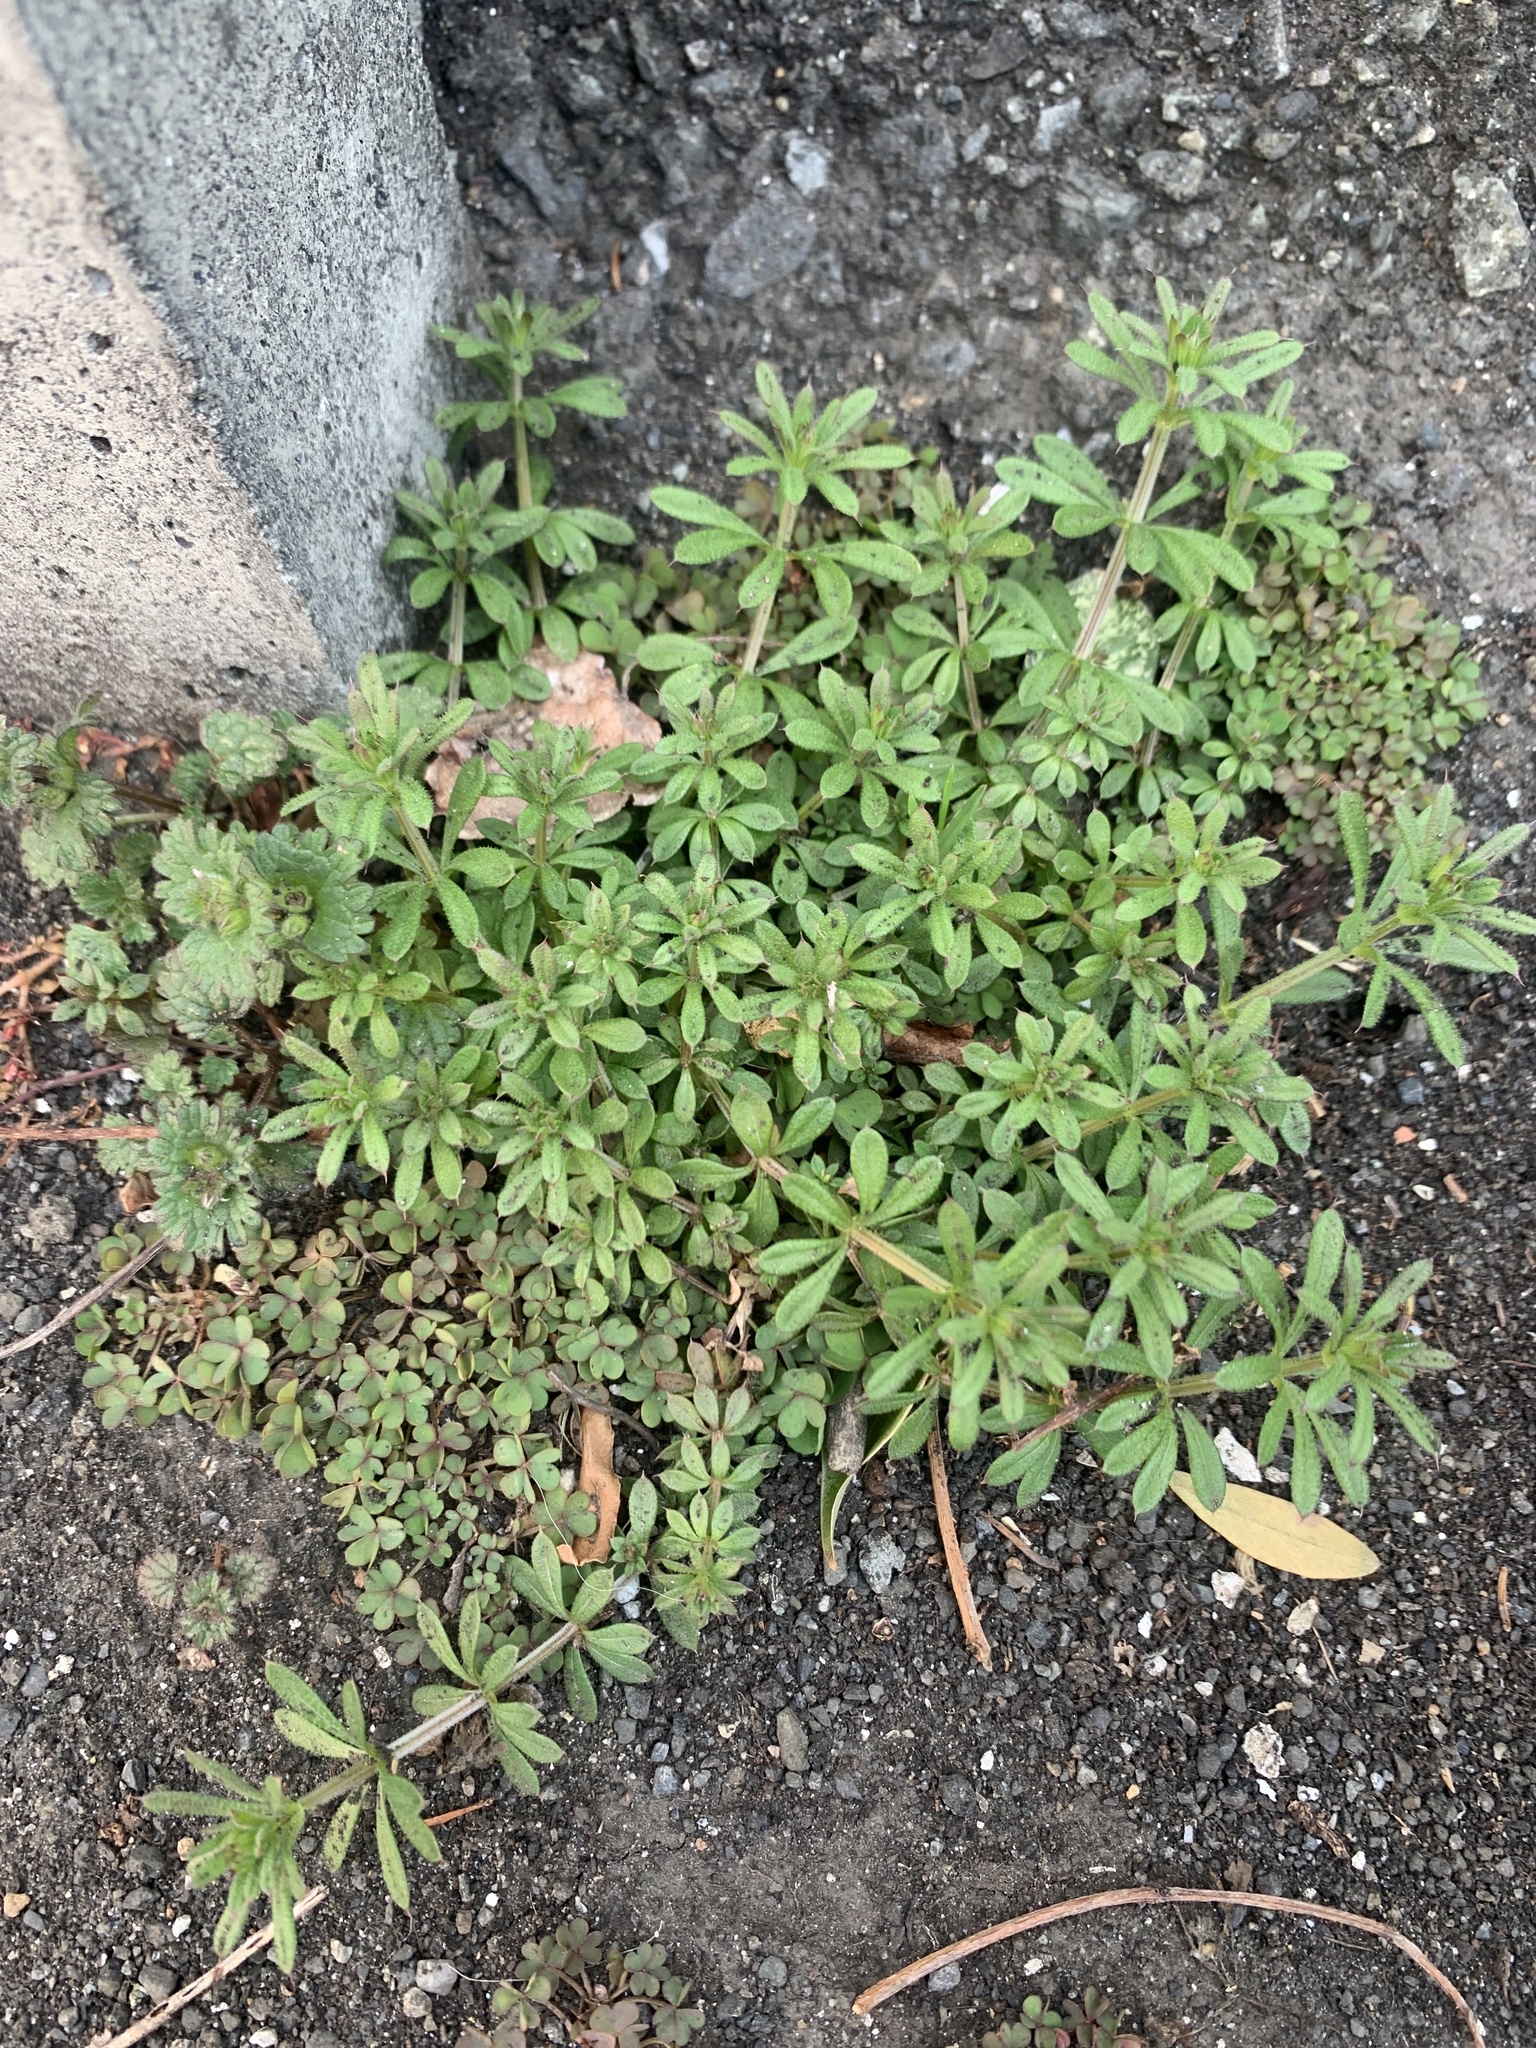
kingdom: Plantae
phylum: Tracheophyta
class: Magnoliopsida
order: Gentianales
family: Rubiaceae
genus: Galium
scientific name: Galium
